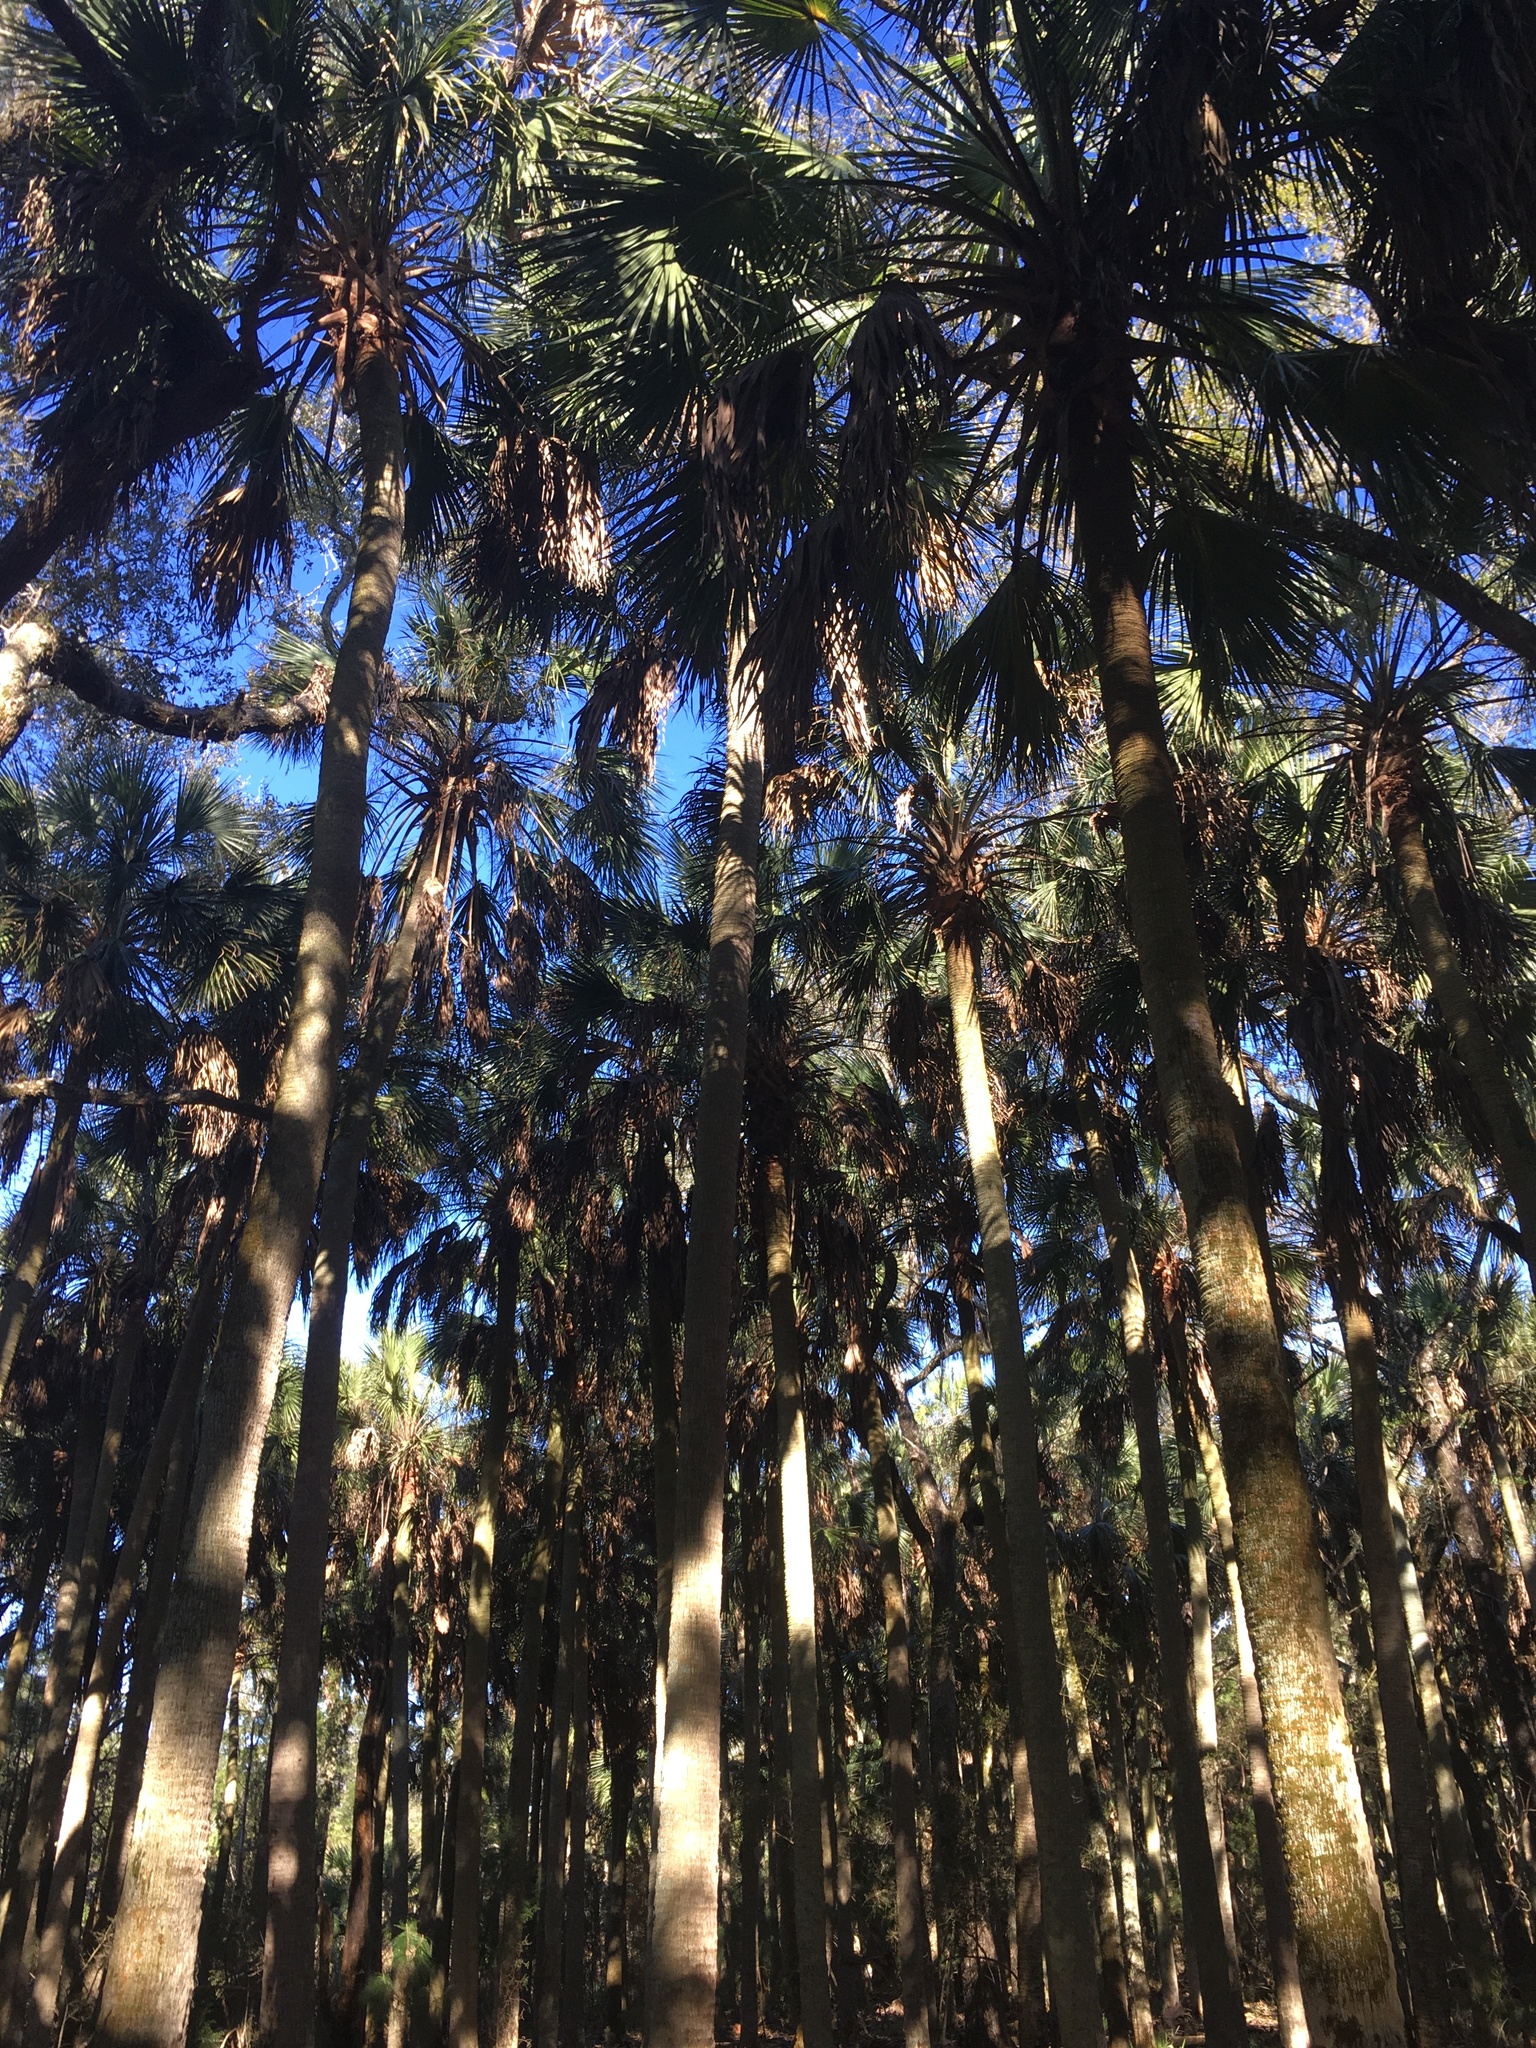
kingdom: Plantae
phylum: Tracheophyta
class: Liliopsida
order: Arecales
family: Arecaceae
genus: Sabal
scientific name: Sabal palmetto
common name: Blue palmetto
